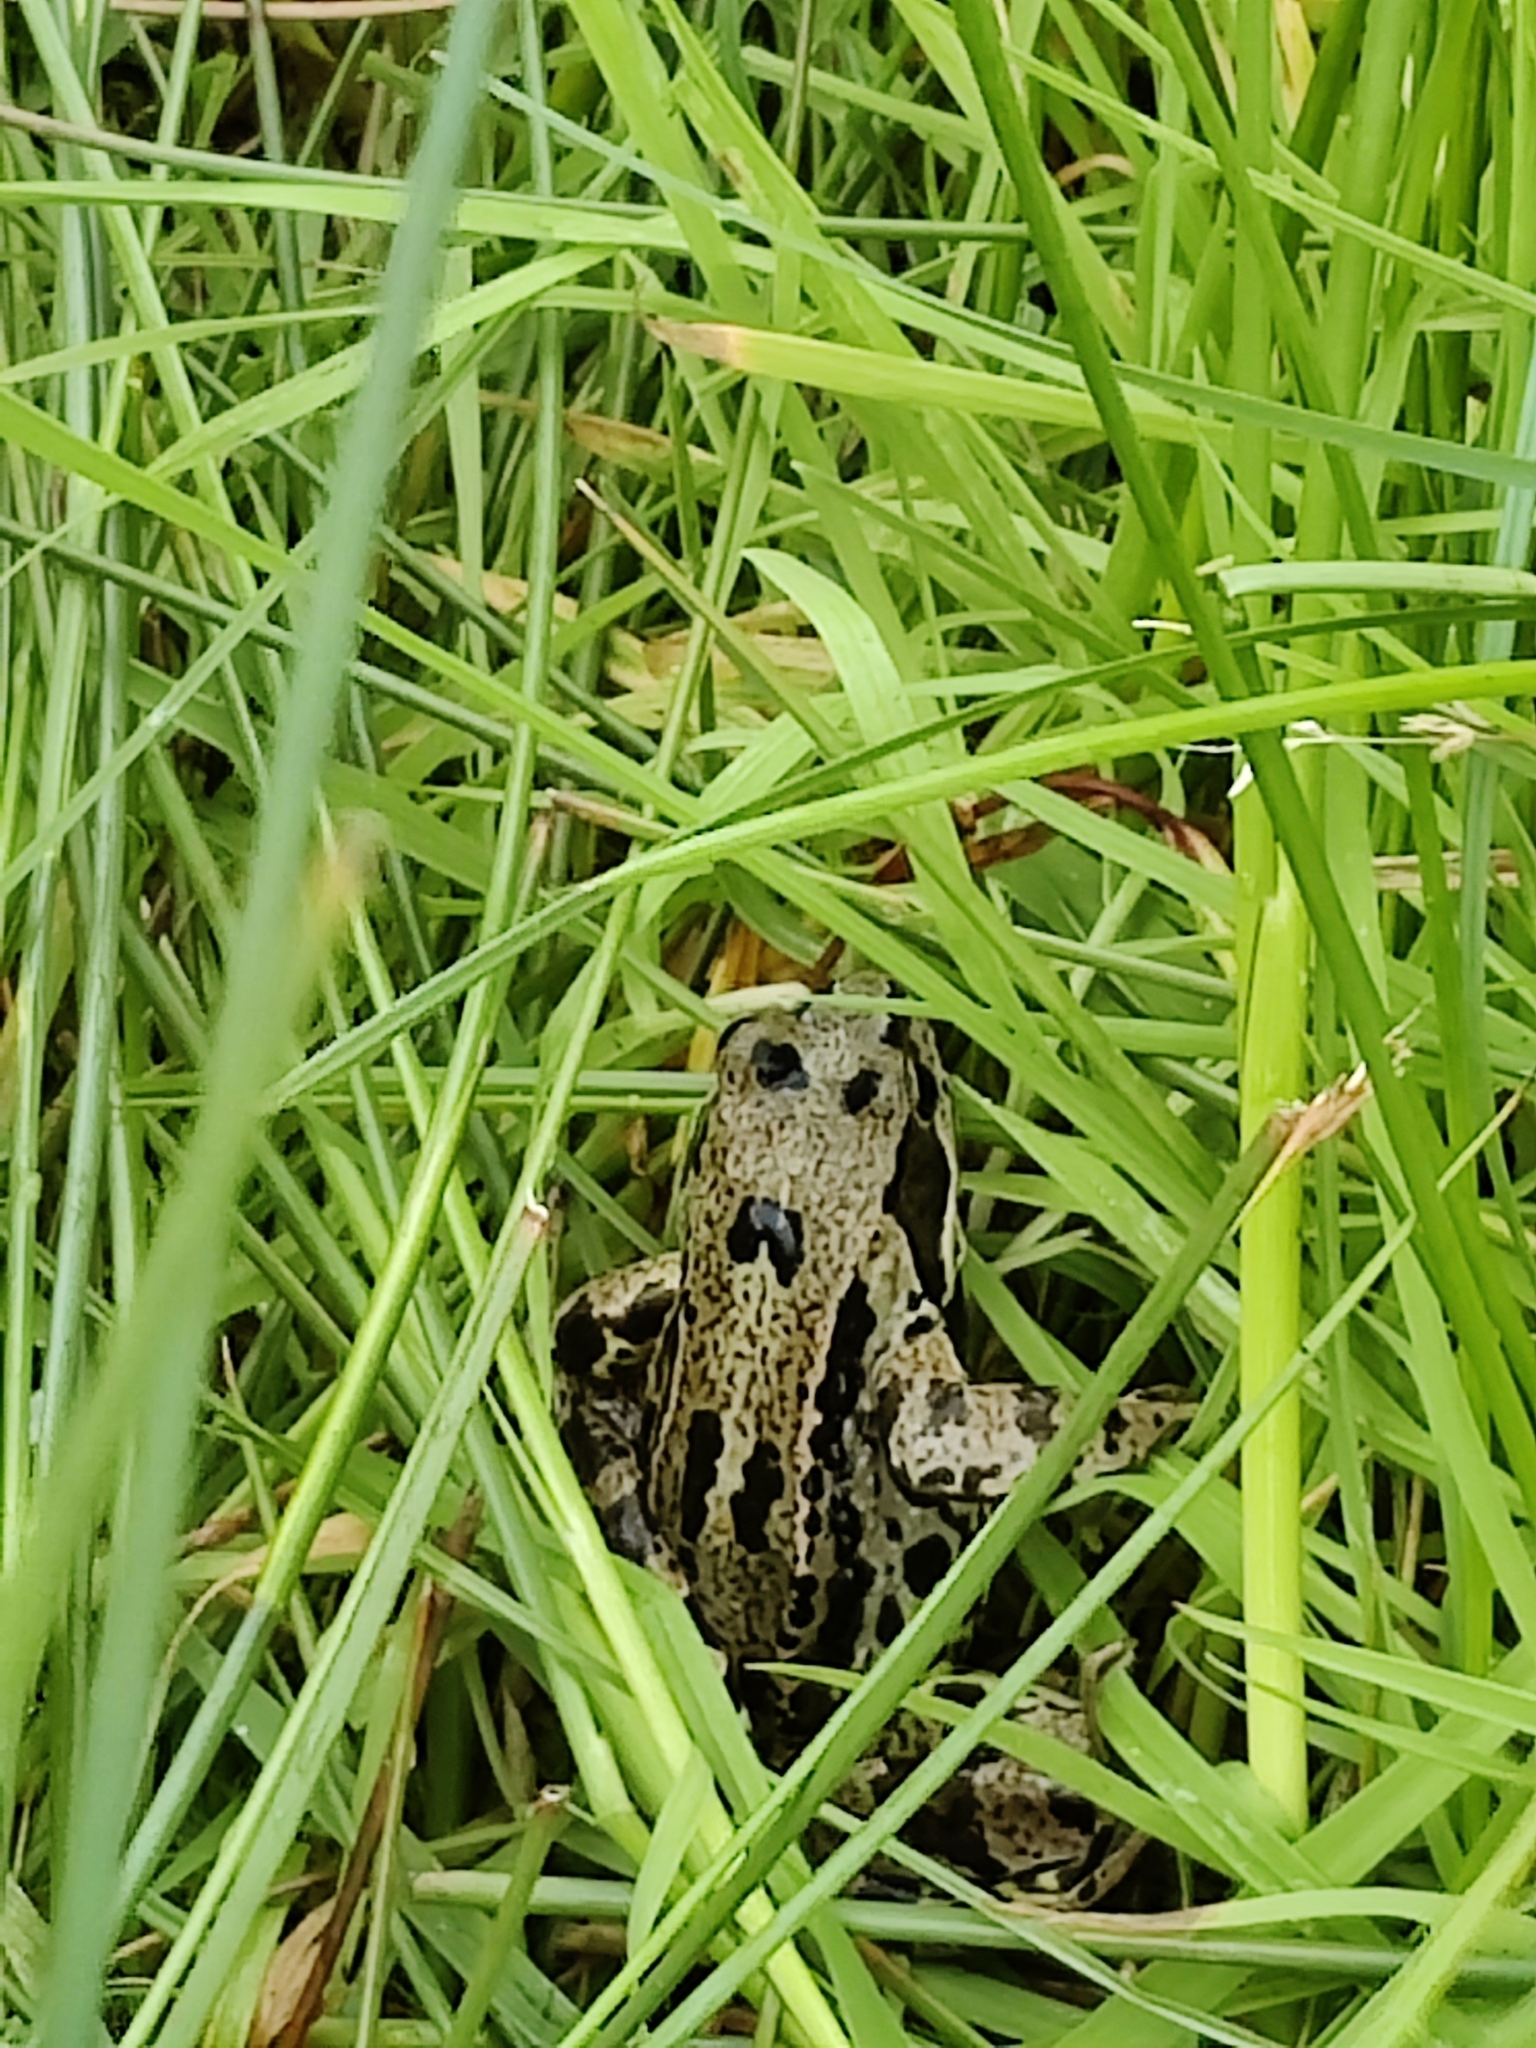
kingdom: Animalia
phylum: Chordata
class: Amphibia
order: Anura
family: Ranidae
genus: Rana
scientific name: Rana temporaria
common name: Common frog
